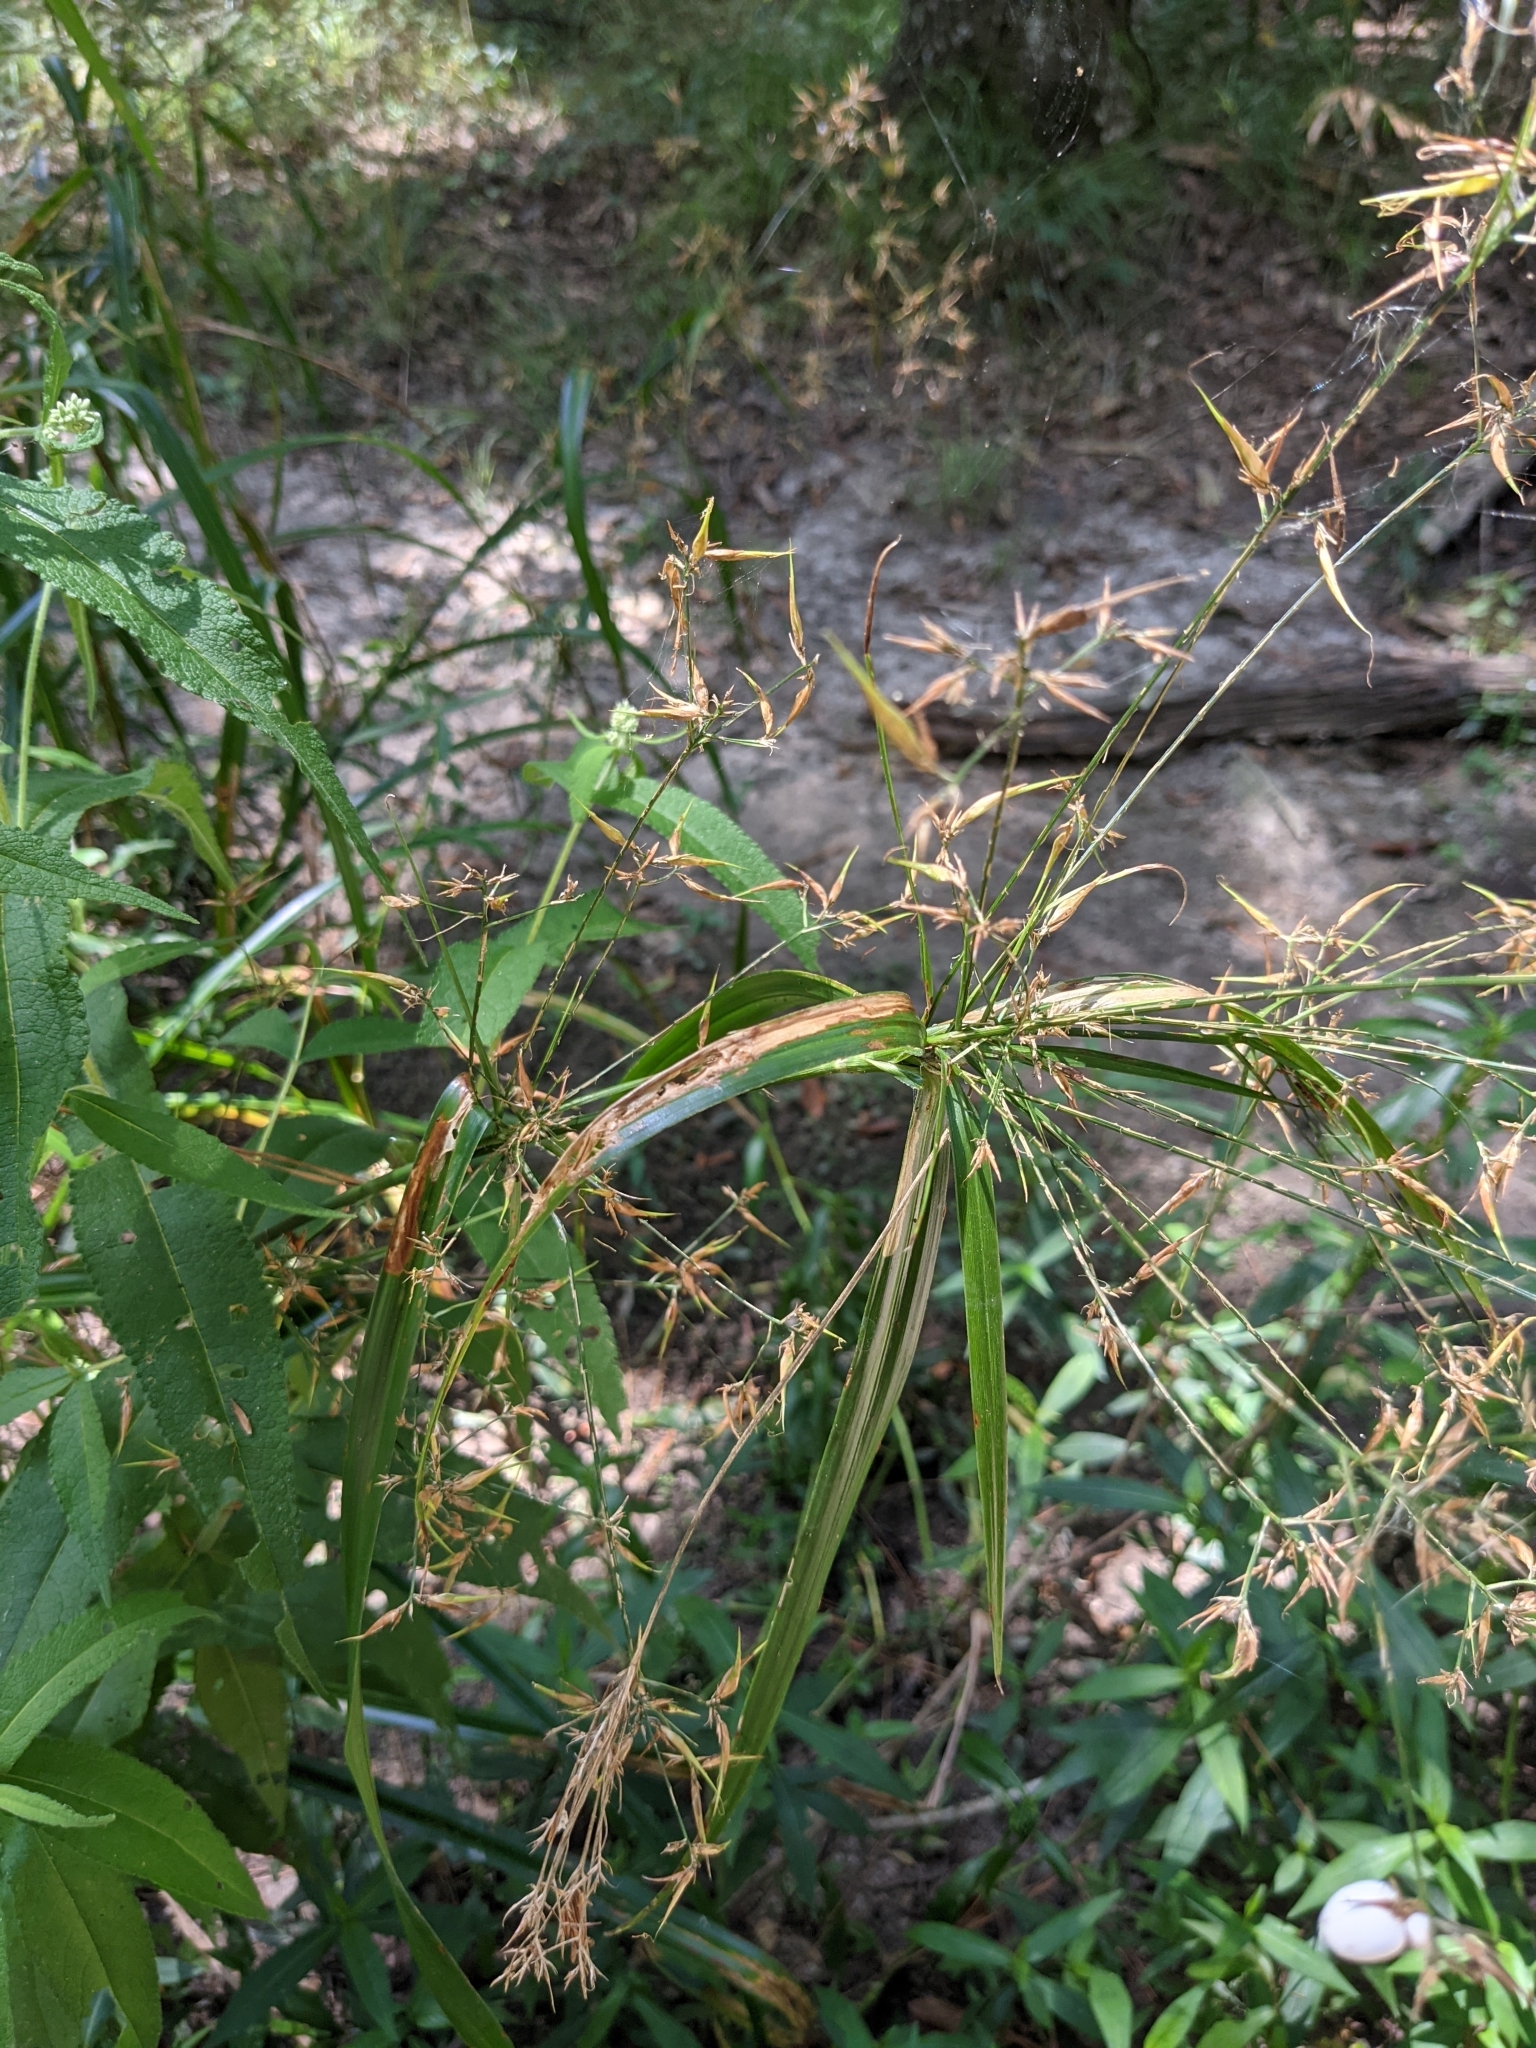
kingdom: Fungi
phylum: Basidiomycota
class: Ustilaginomycetes
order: Ustilaginales
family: Anthracoideaceae
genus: Testicularia
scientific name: Testicularia cyperi
